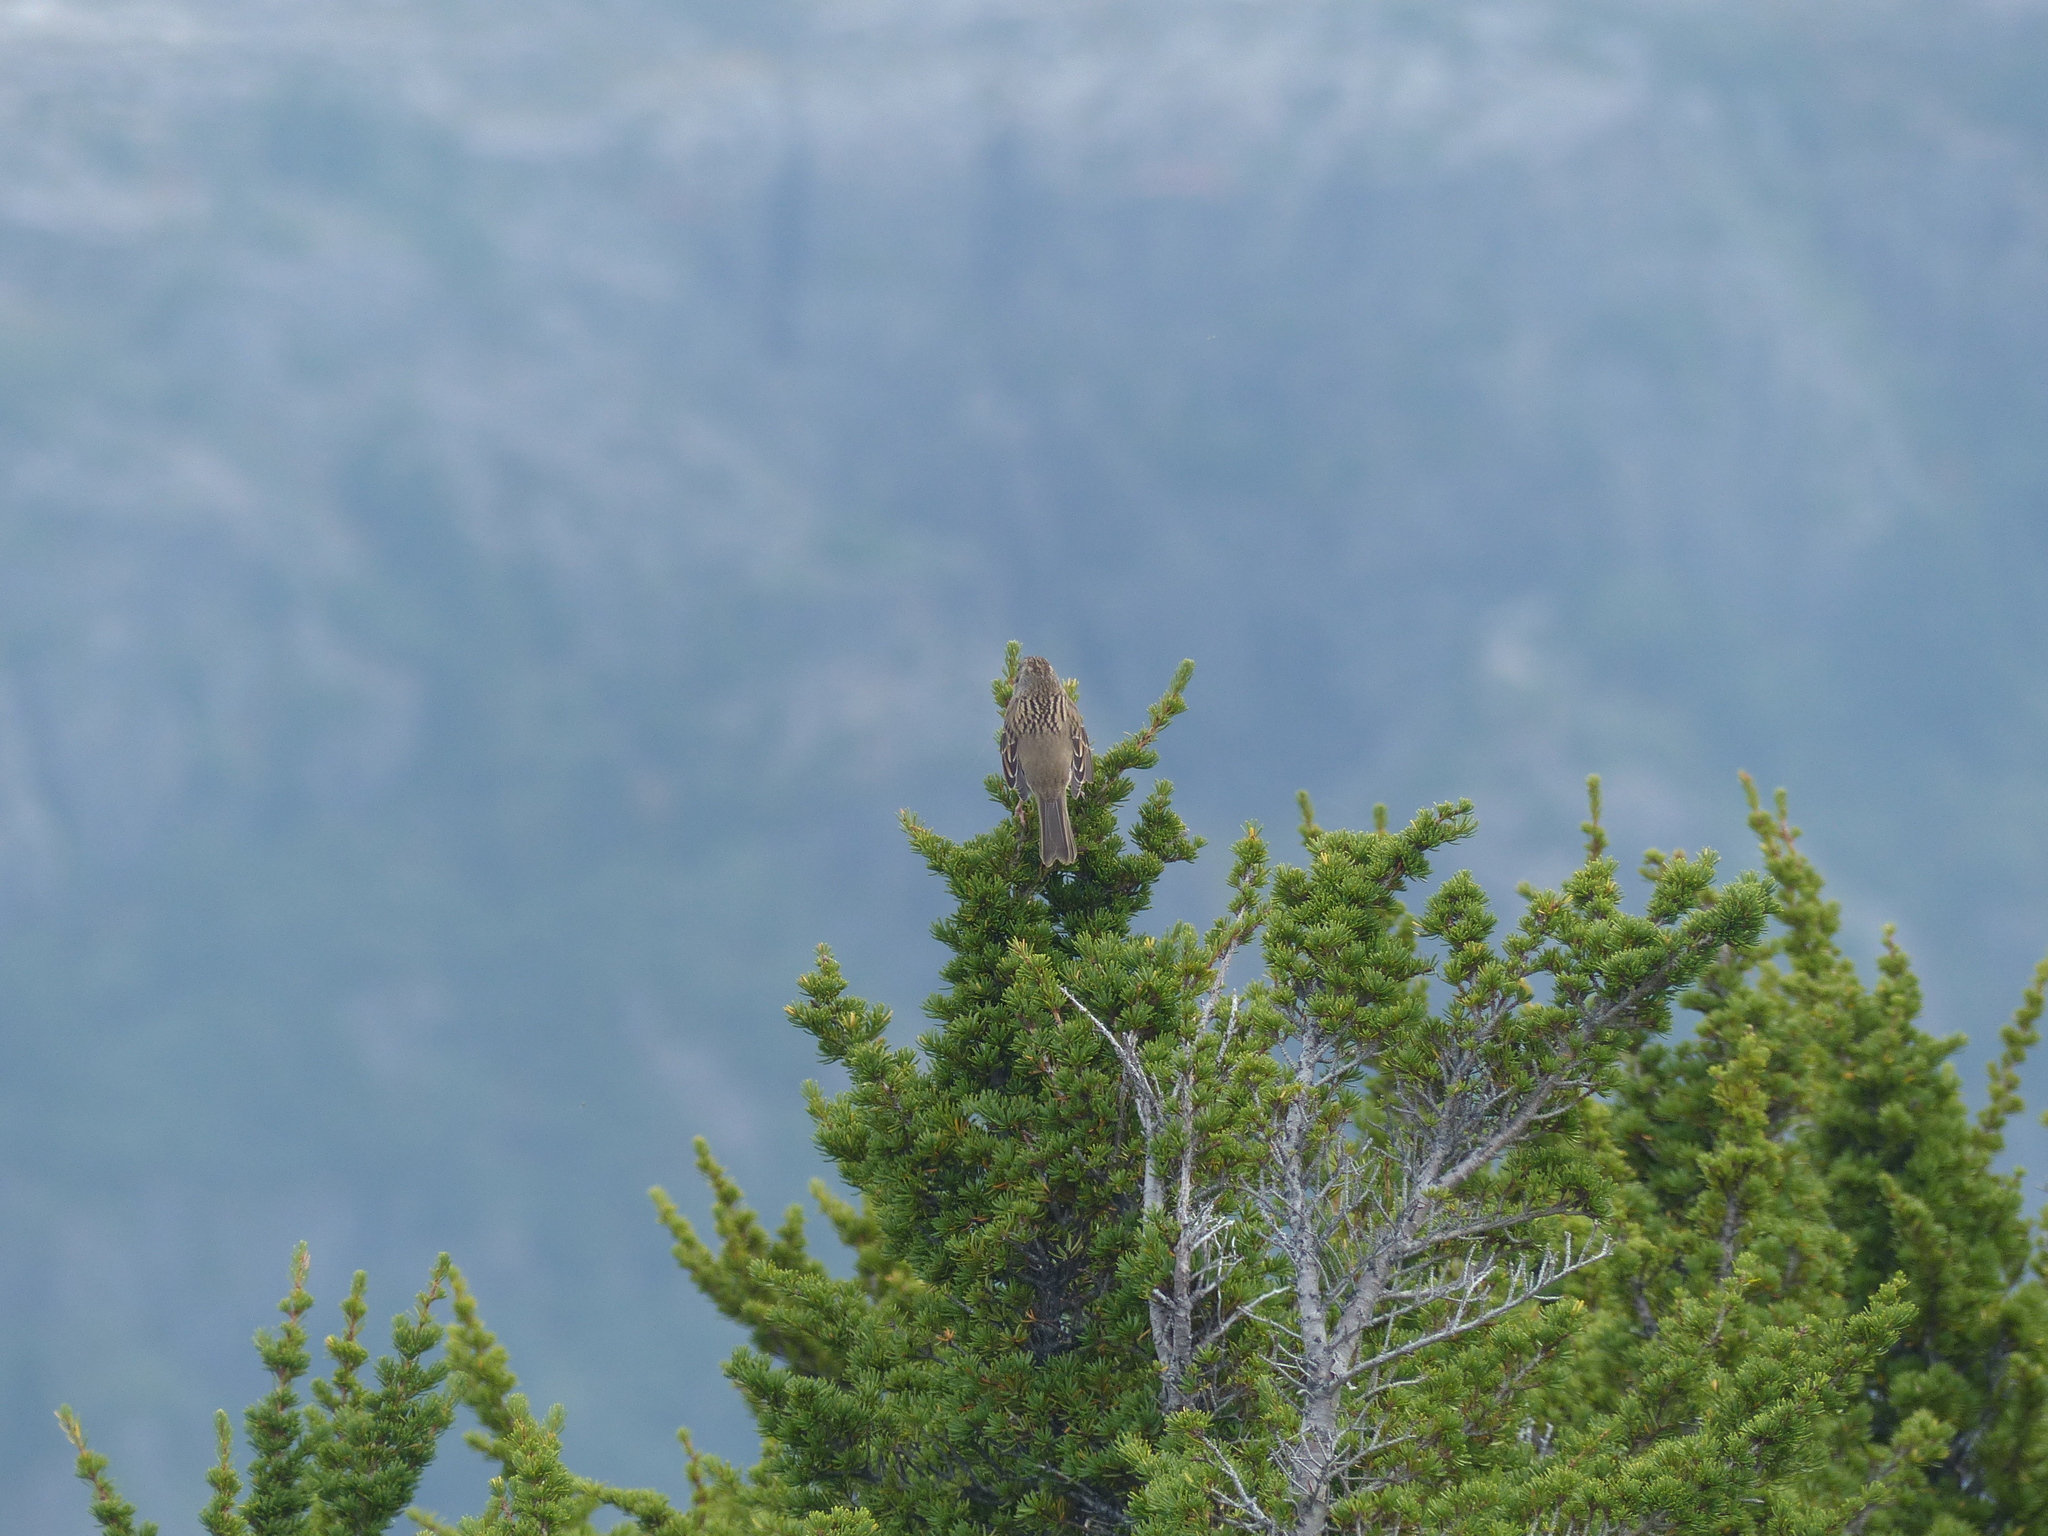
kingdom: Animalia
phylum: Chordata
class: Aves
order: Passeriformes
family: Passerellidae
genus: Zonotrichia
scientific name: Zonotrichia atricapilla
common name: Golden-crowned sparrow
